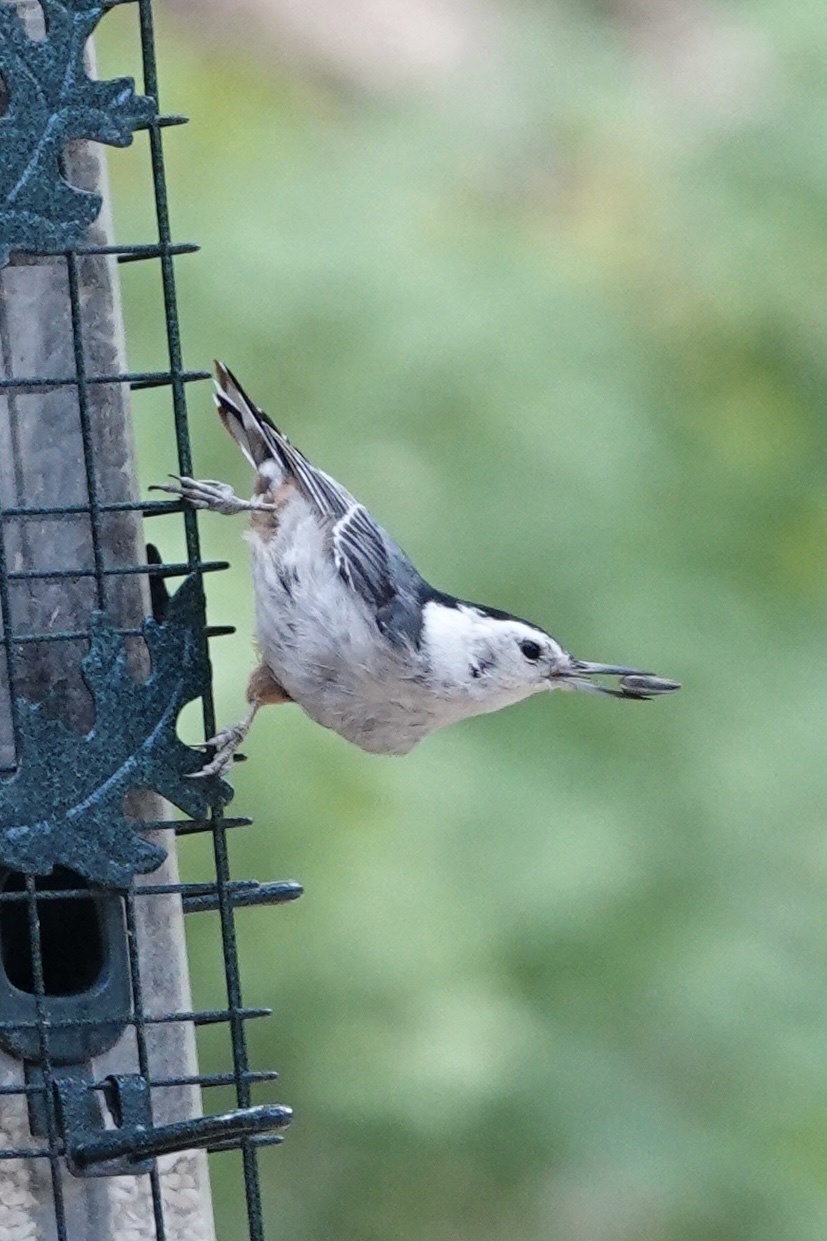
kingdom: Animalia
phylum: Chordata
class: Aves
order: Passeriformes
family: Sittidae
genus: Sitta
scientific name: Sitta carolinensis
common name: White-breasted nuthatch
